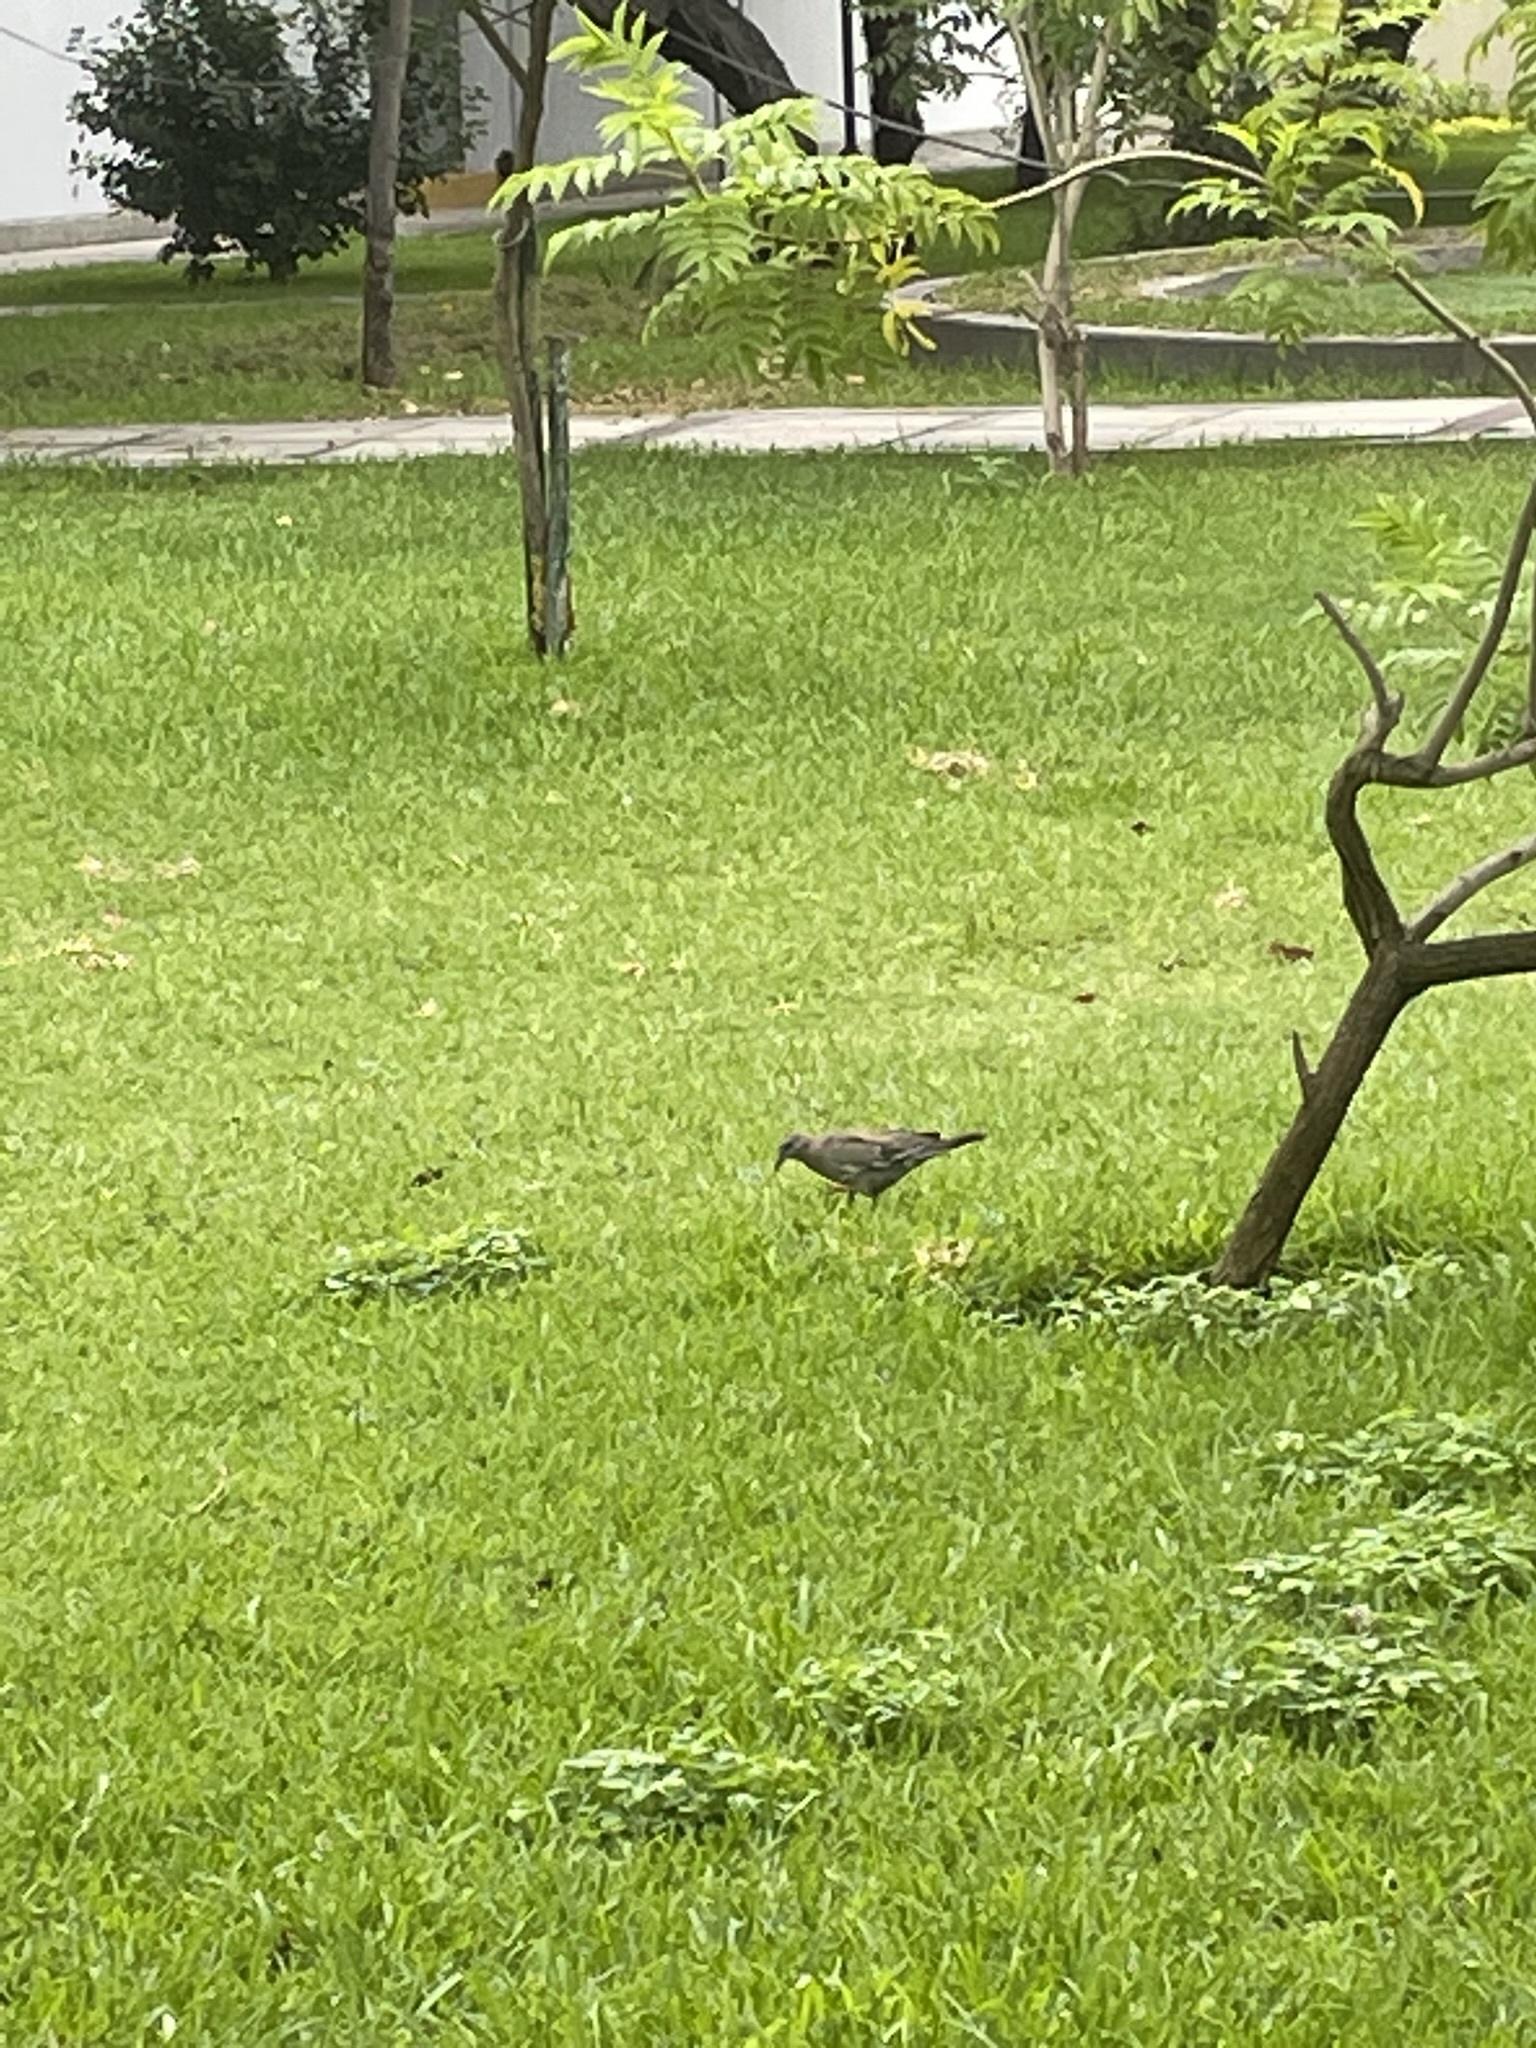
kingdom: Animalia
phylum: Chordata
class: Aves
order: Columbiformes
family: Columbidae
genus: Zenaida
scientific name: Zenaida meloda
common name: West peruvian dove
